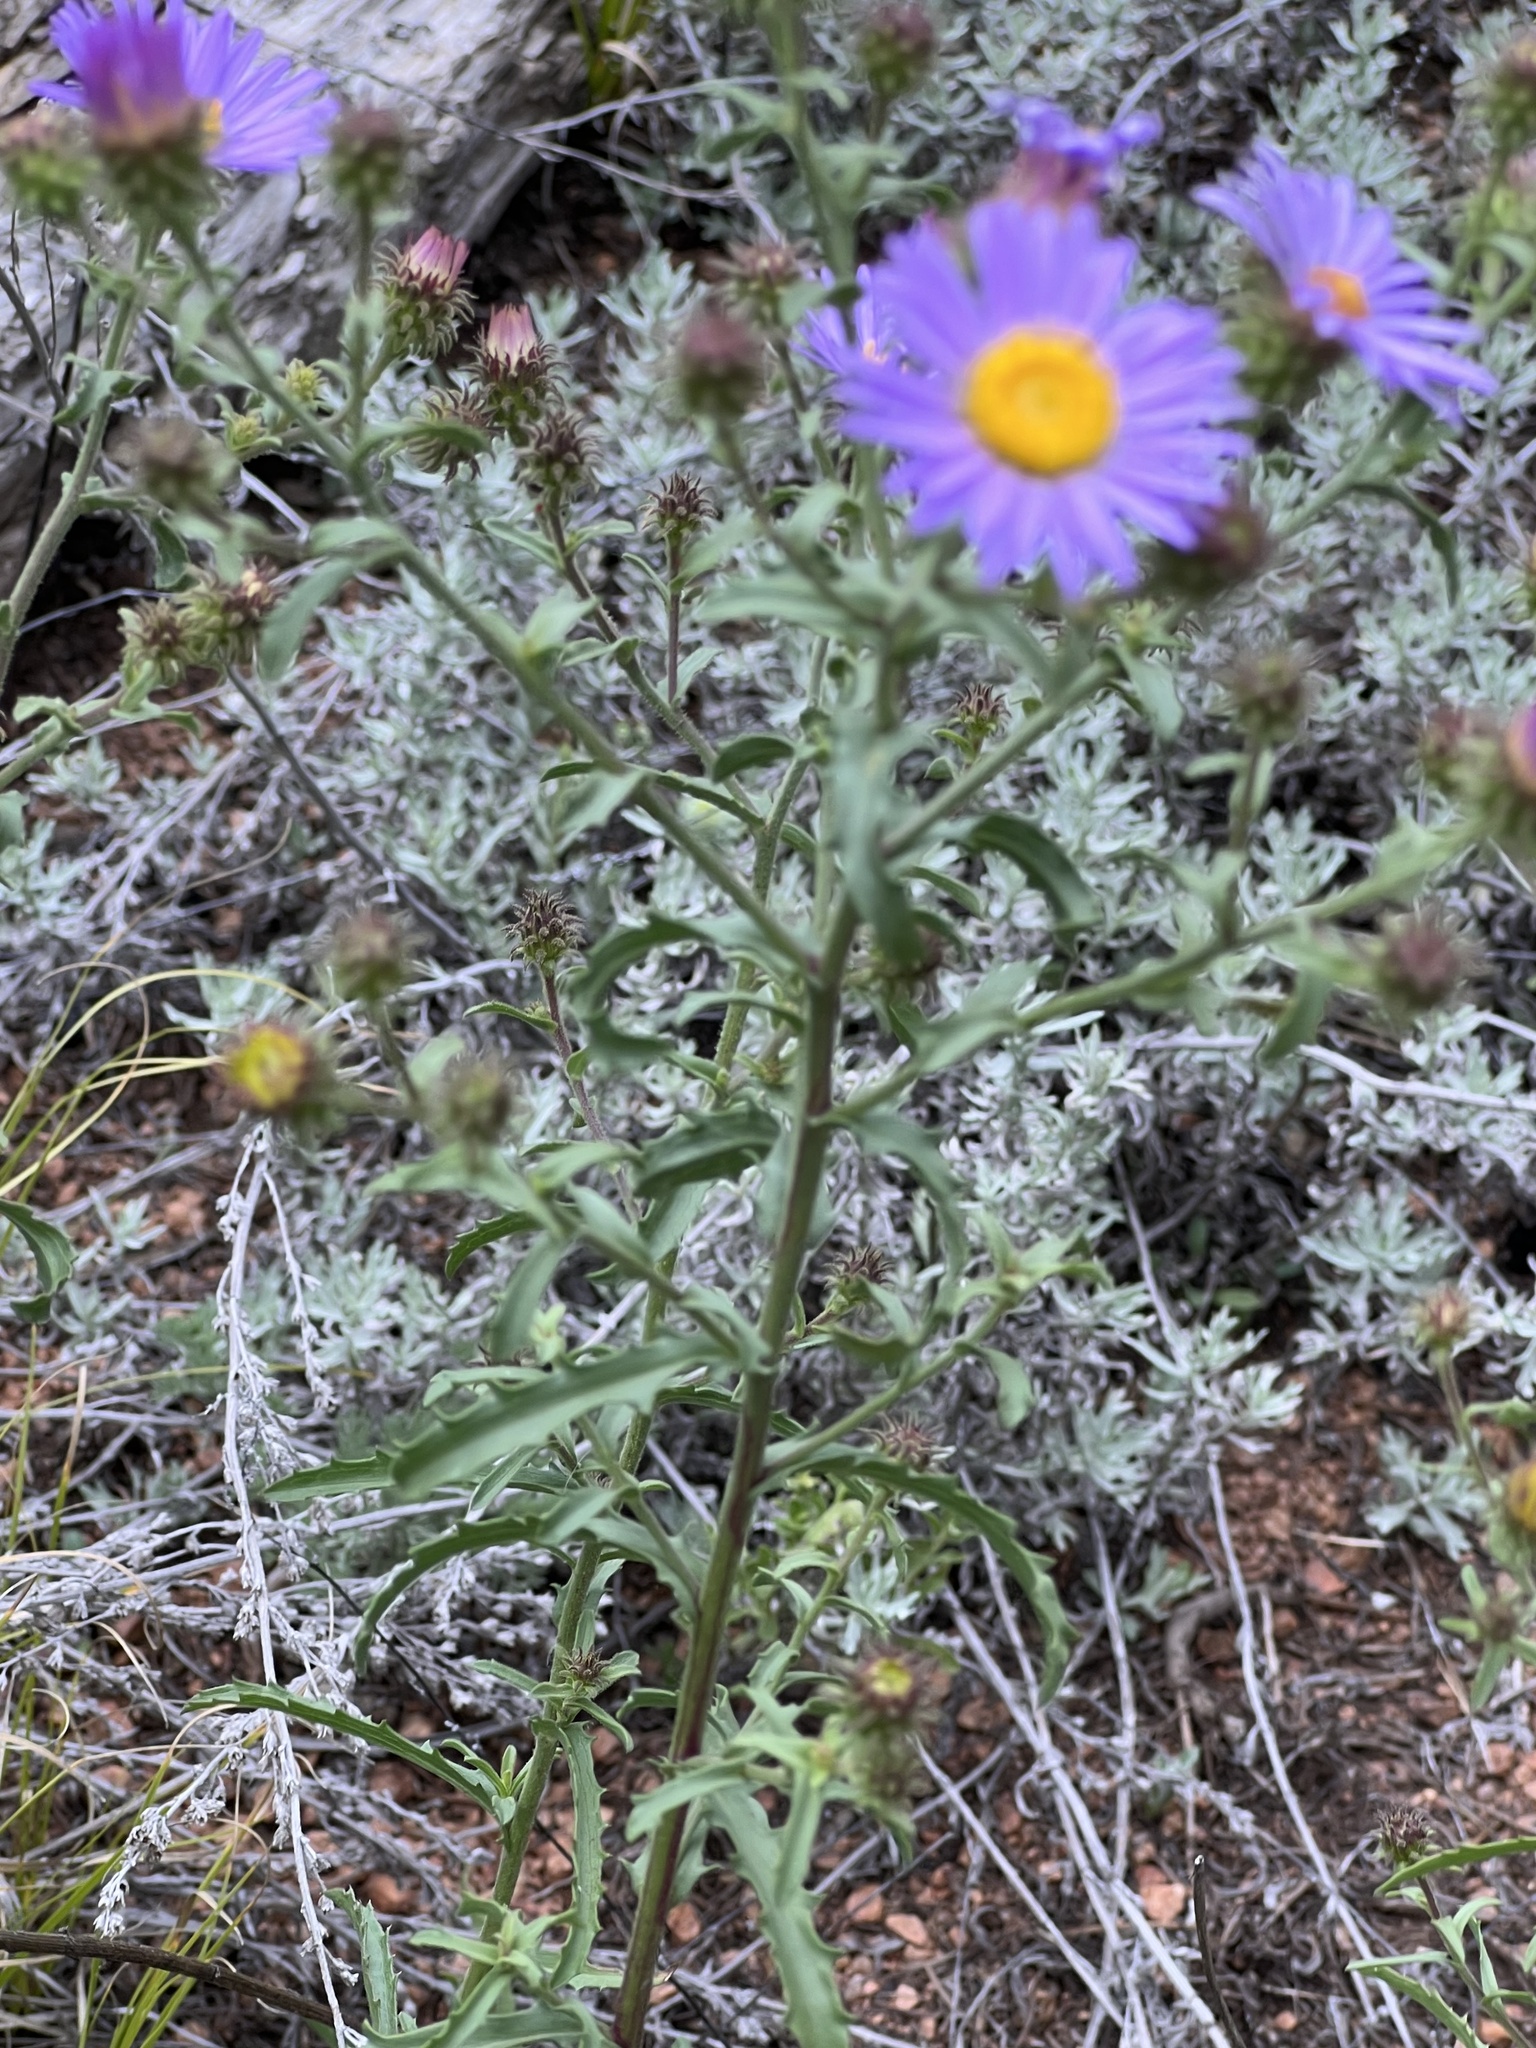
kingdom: Plantae
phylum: Tracheophyta
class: Magnoliopsida
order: Asterales
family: Asteraceae
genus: Dieteria
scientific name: Dieteria bigelovii
